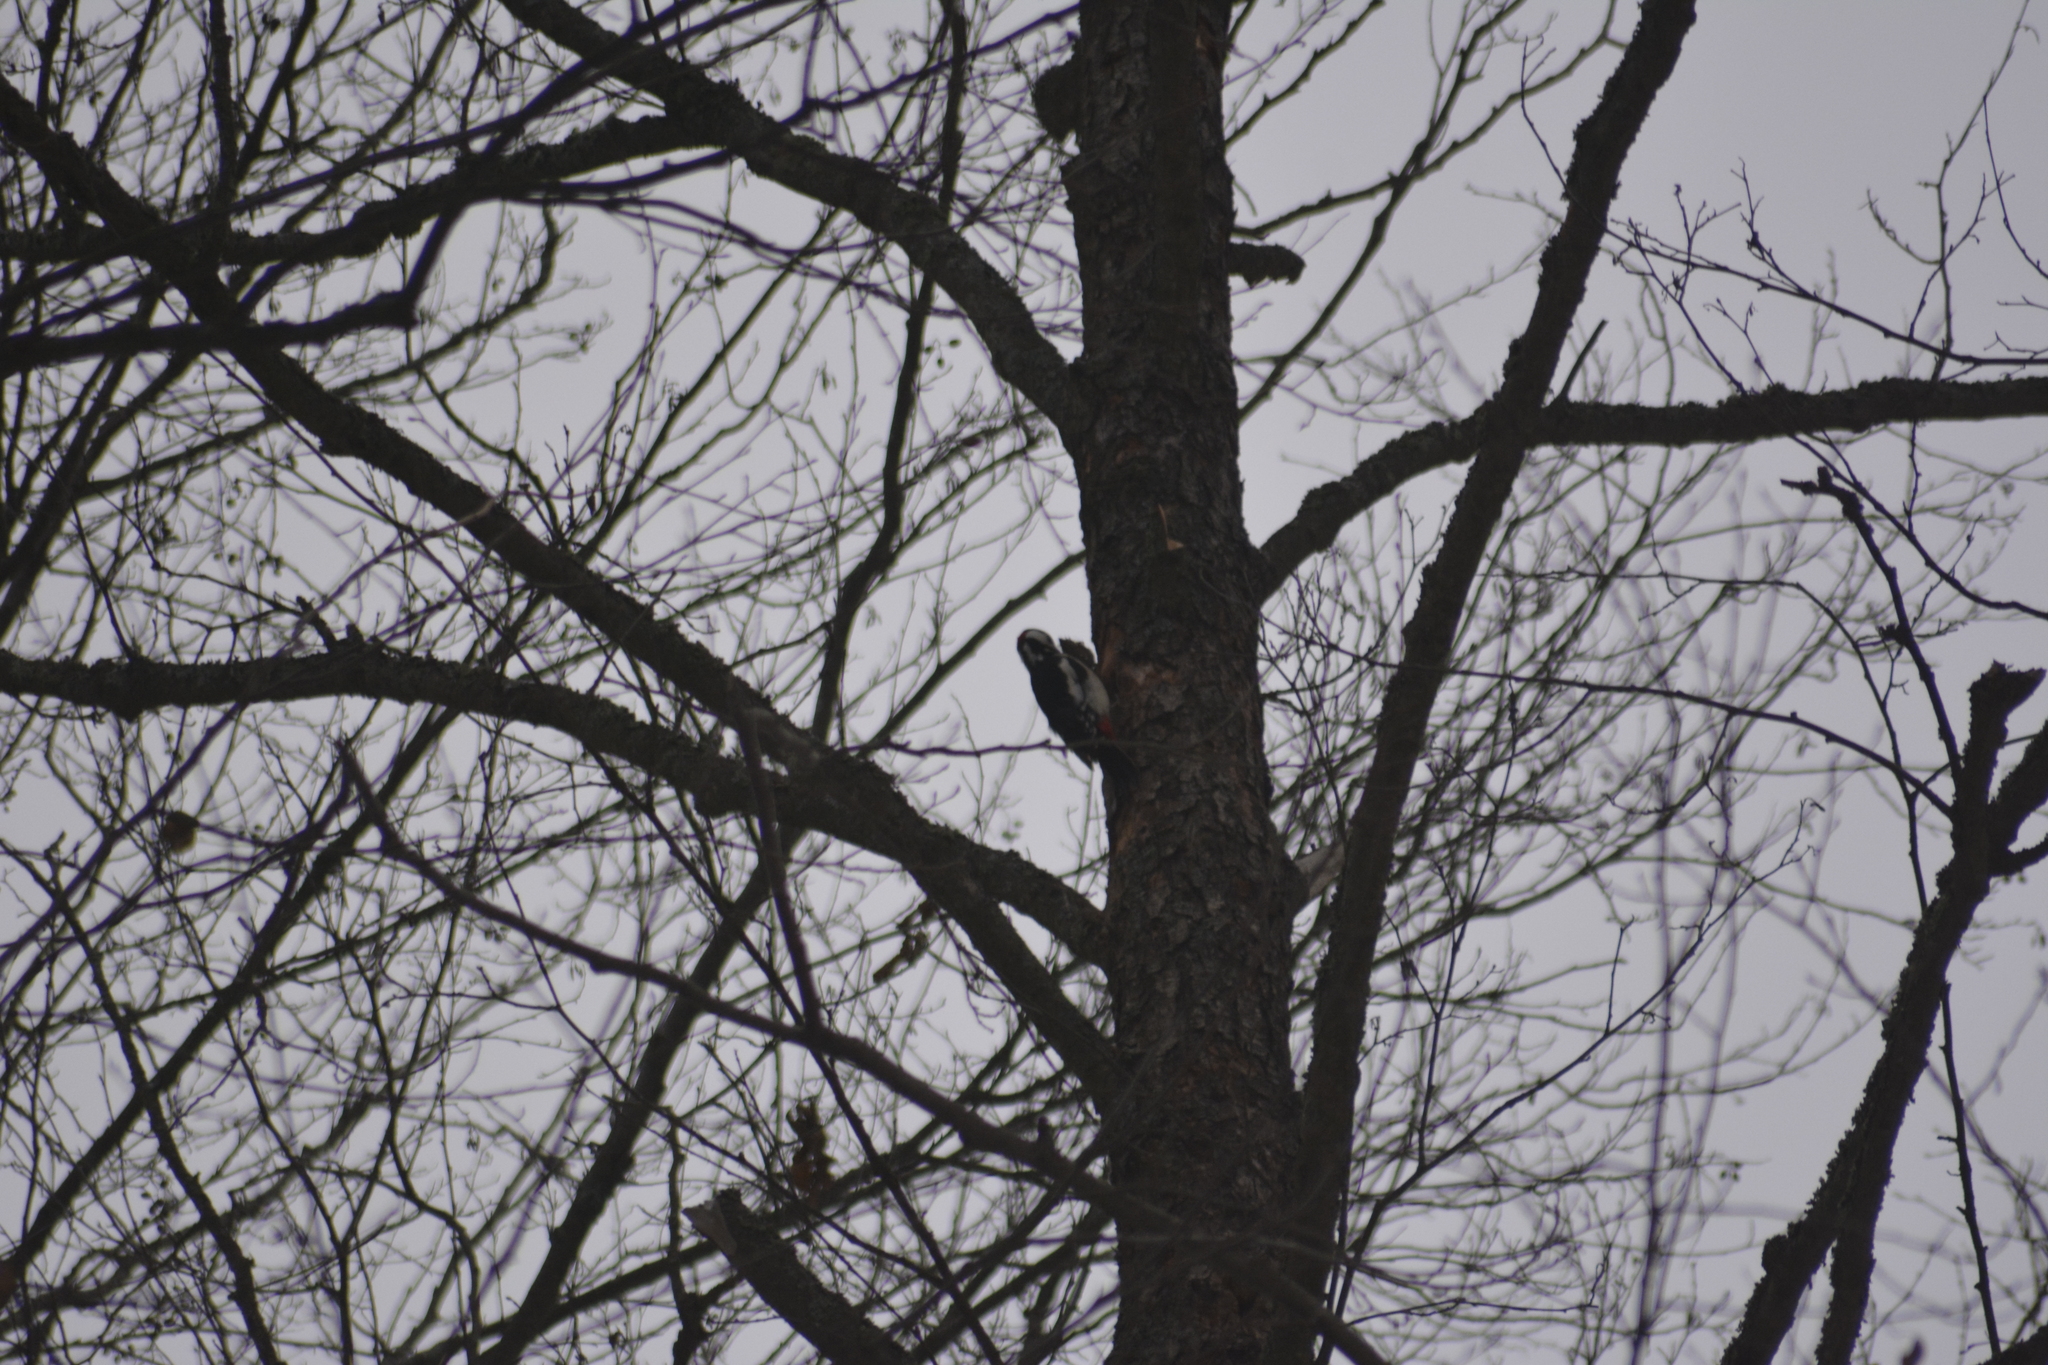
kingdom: Animalia
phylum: Chordata
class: Aves
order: Piciformes
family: Picidae
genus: Dendrocopos
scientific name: Dendrocopos major
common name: Great spotted woodpecker
